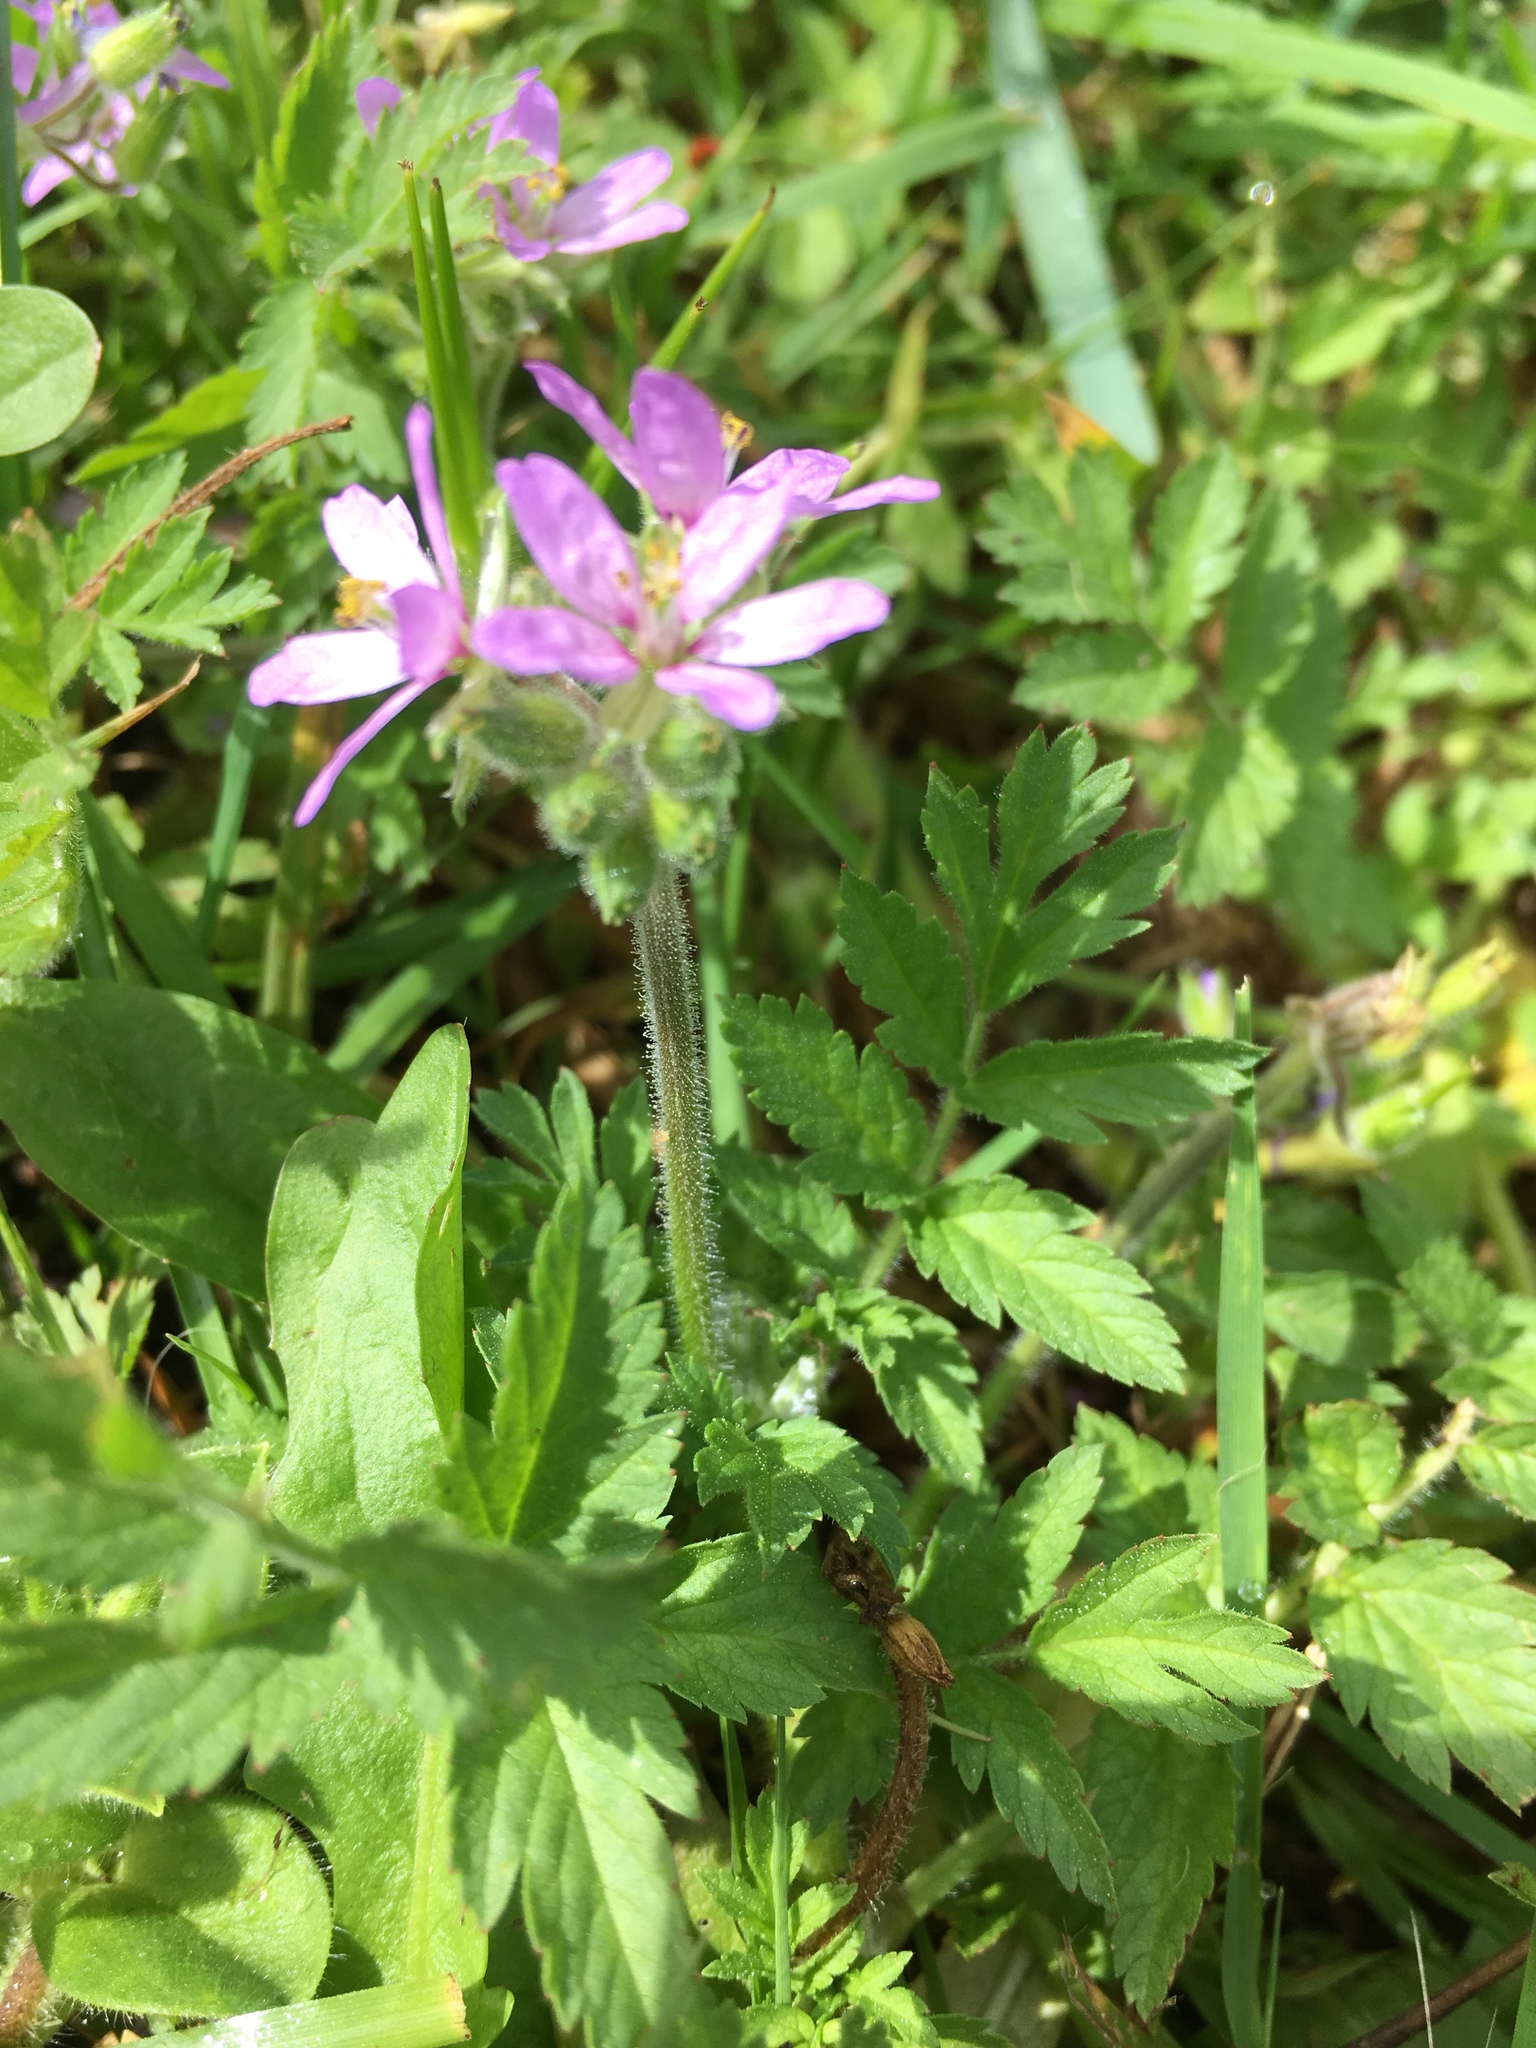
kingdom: Plantae
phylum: Tracheophyta
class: Magnoliopsida
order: Geraniales
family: Geraniaceae
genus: Erodium
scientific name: Erodium moschatum
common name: Musk stork's-bill
